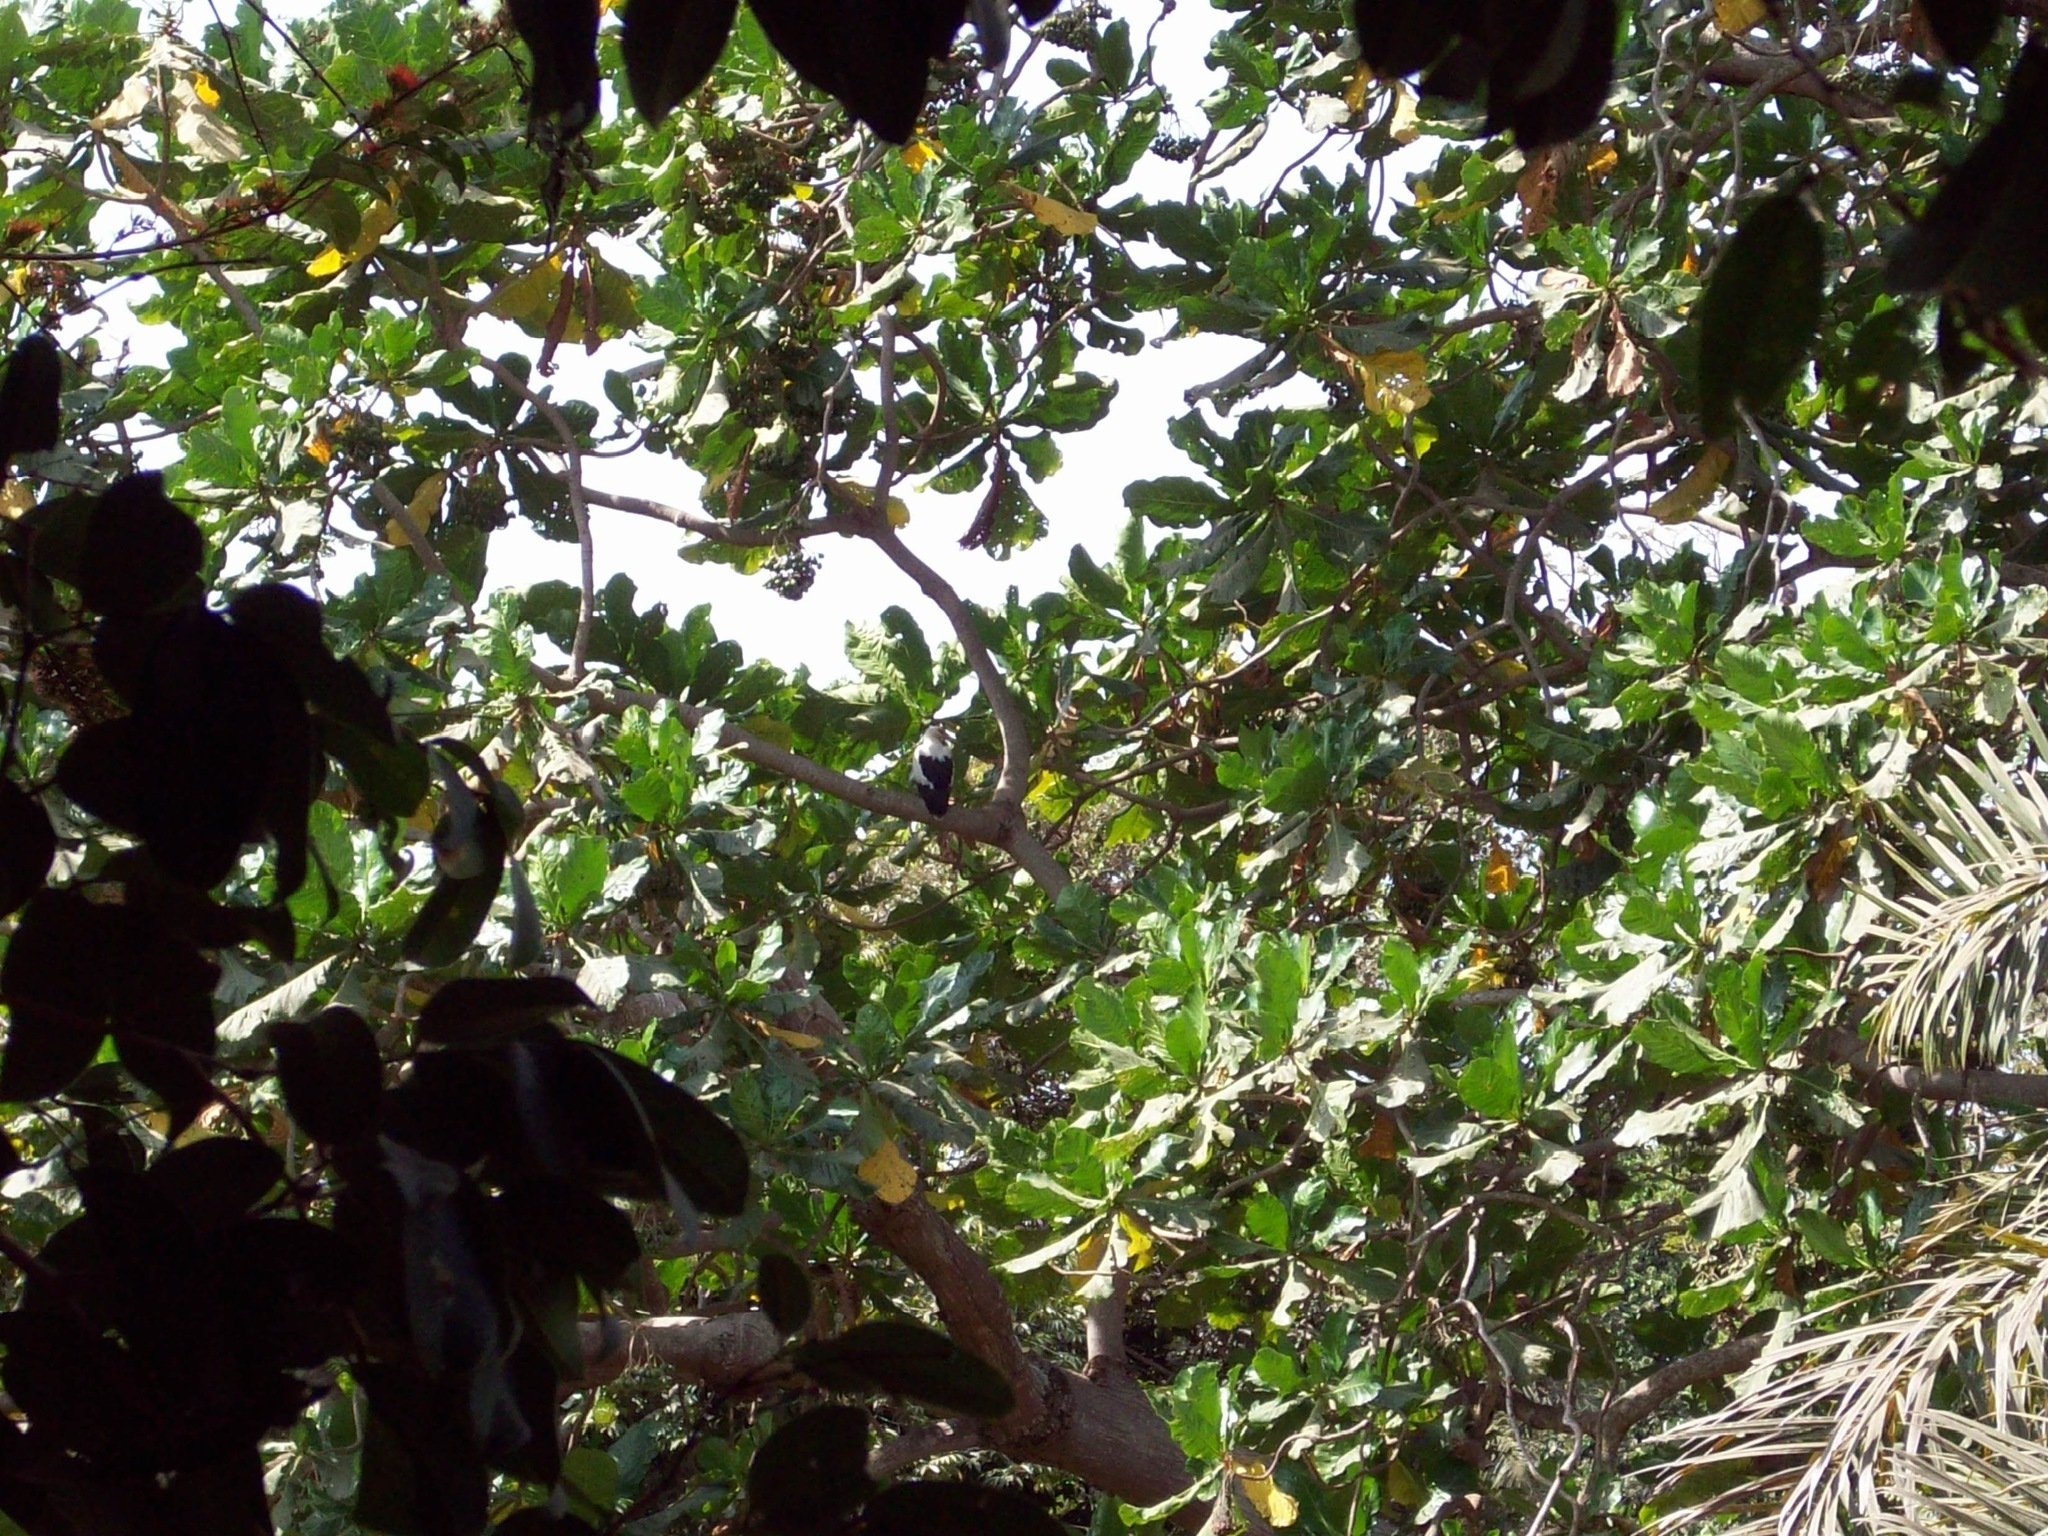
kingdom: Animalia
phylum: Chordata
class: Aves
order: Accipitriformes
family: Accipitridae
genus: Gypohierax
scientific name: Gypohierax angolensis
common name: Palm-nut vulture
